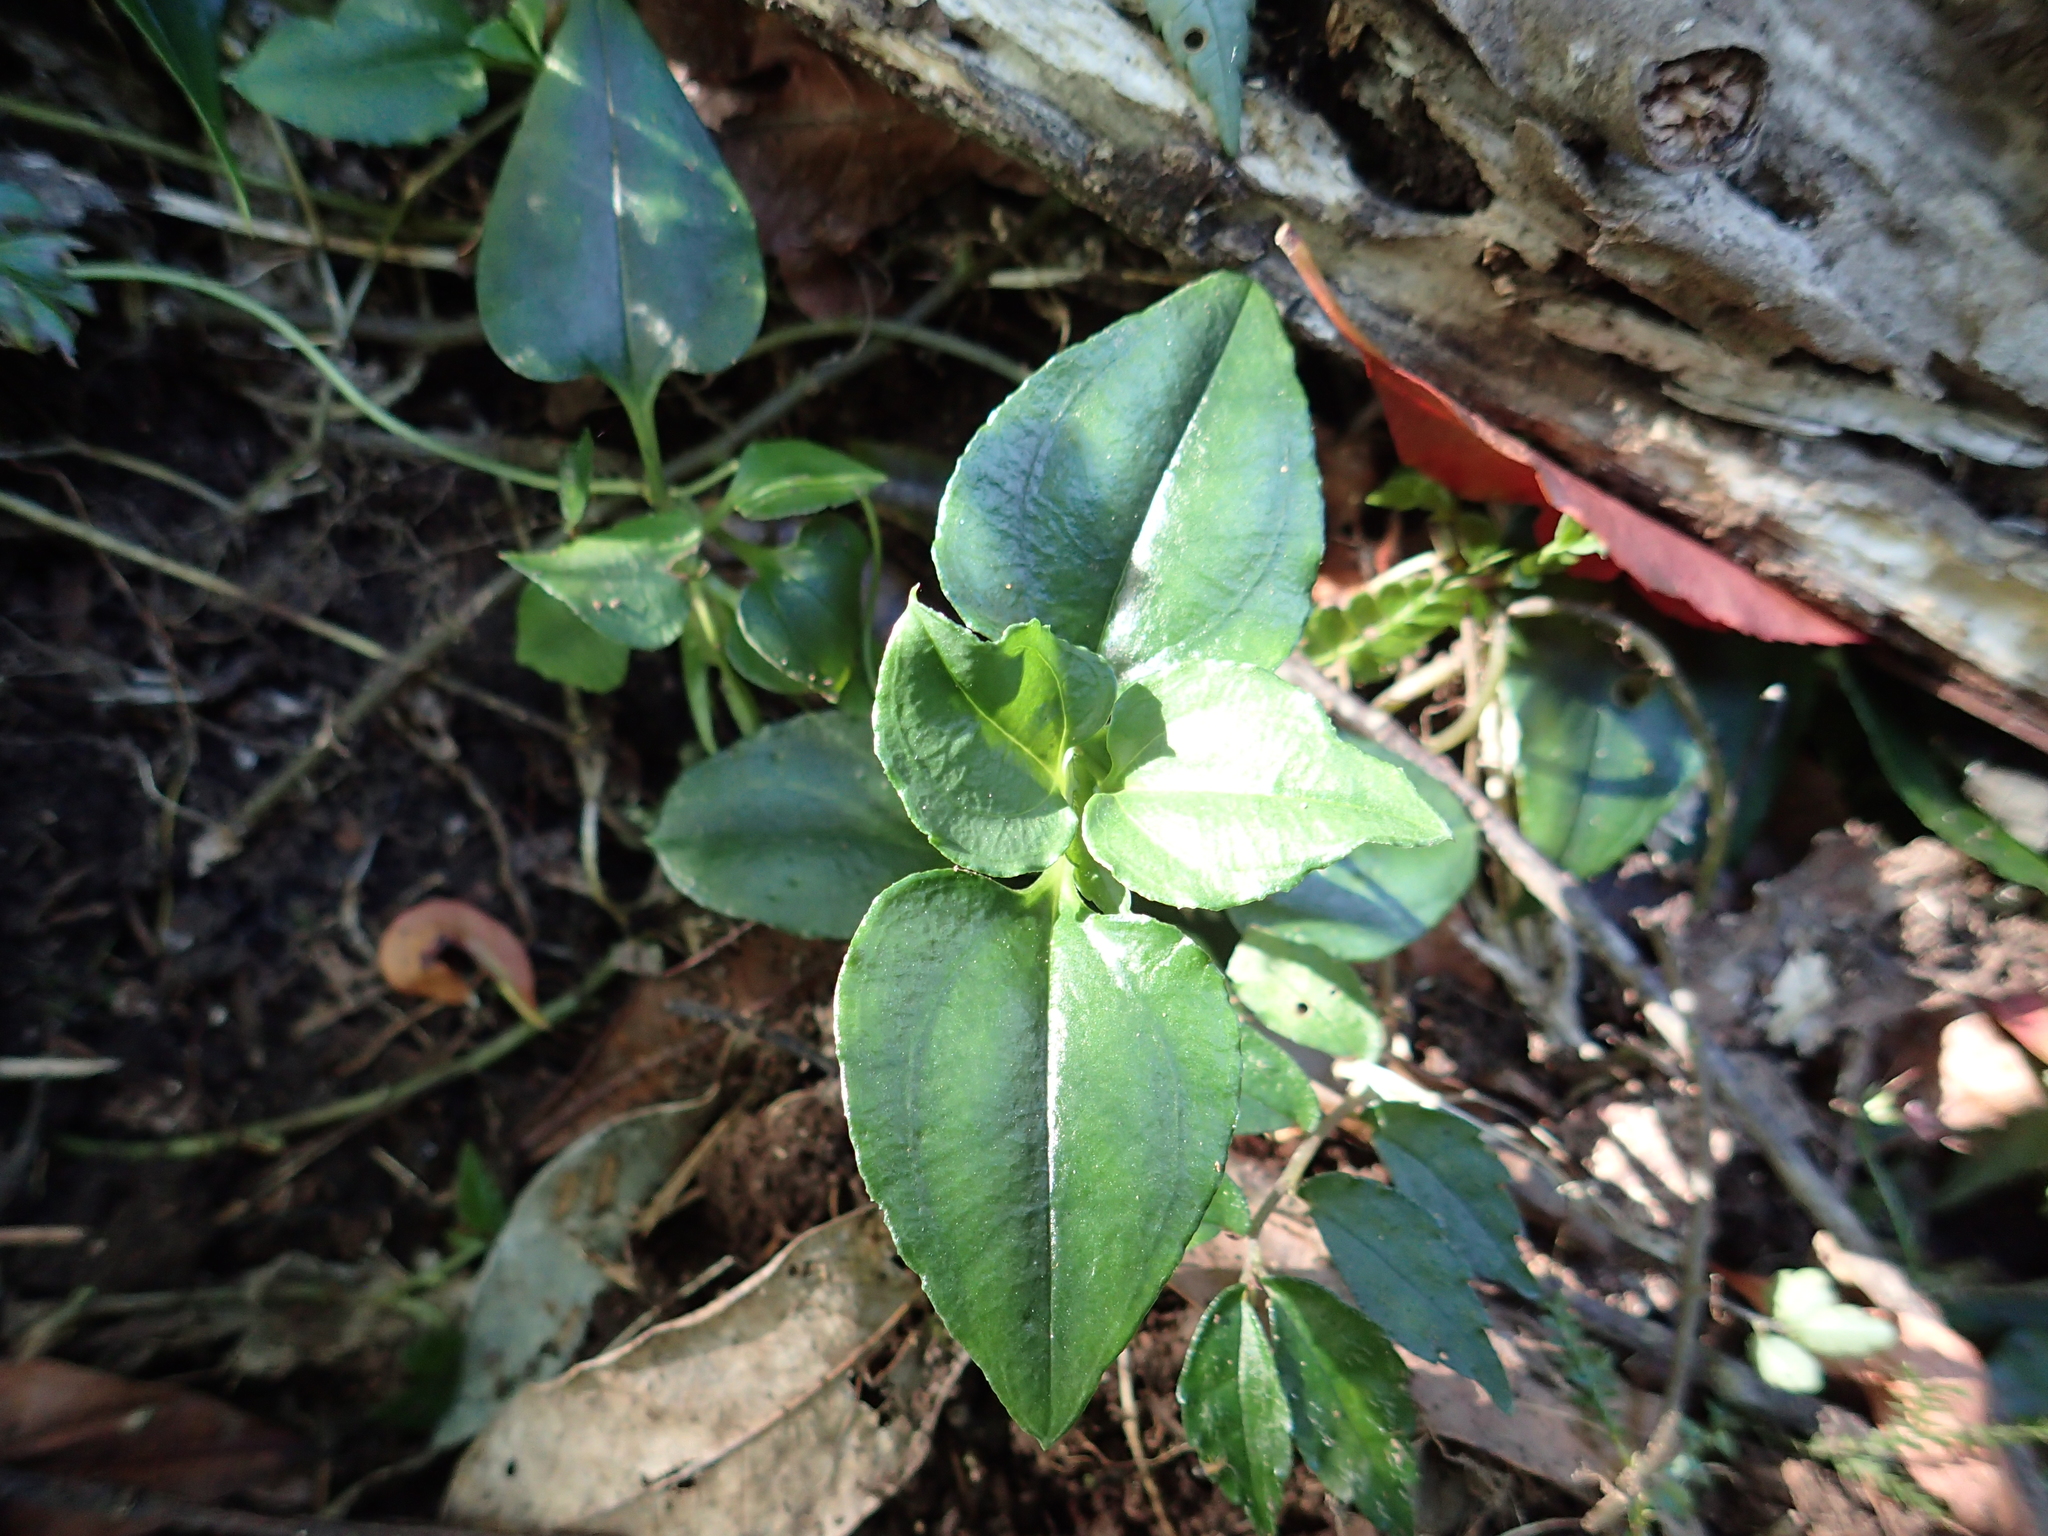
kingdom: Plantae
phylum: Tracheophyta
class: Magnoliopsida
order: Gentianales
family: Gentianaceae
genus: Tripterospermum
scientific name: Tripterospermum alutaceifolium
